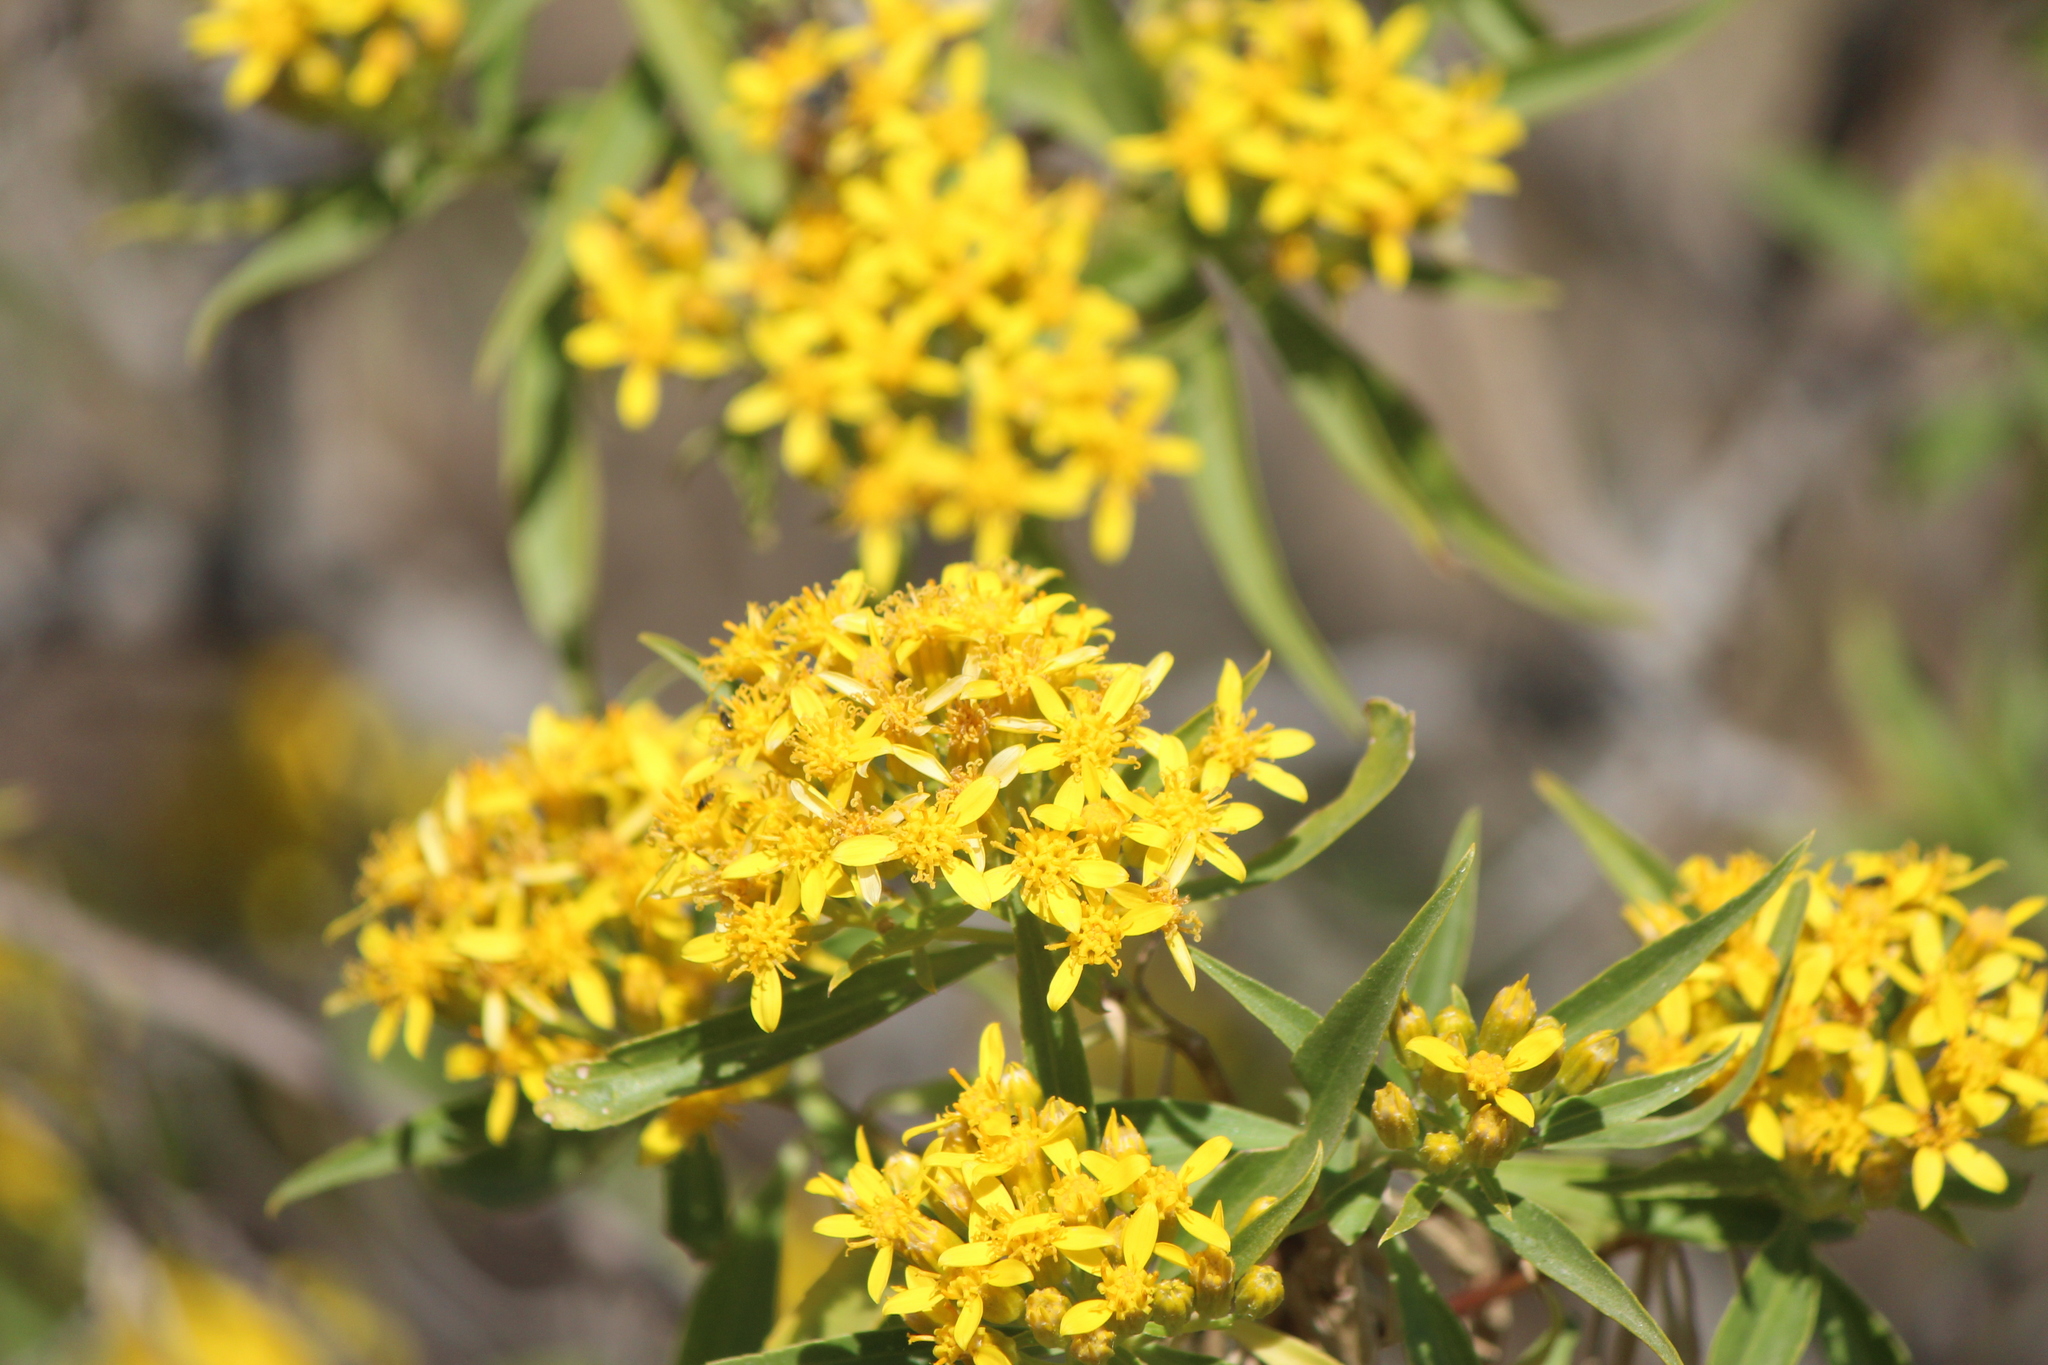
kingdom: Plantae
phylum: Tracheophyta
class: Magnoliopsida
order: Asterales
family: Asteraceae
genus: Barkleyanthus
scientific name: Barkleyanthus salicifolius
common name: Willow ragwort
